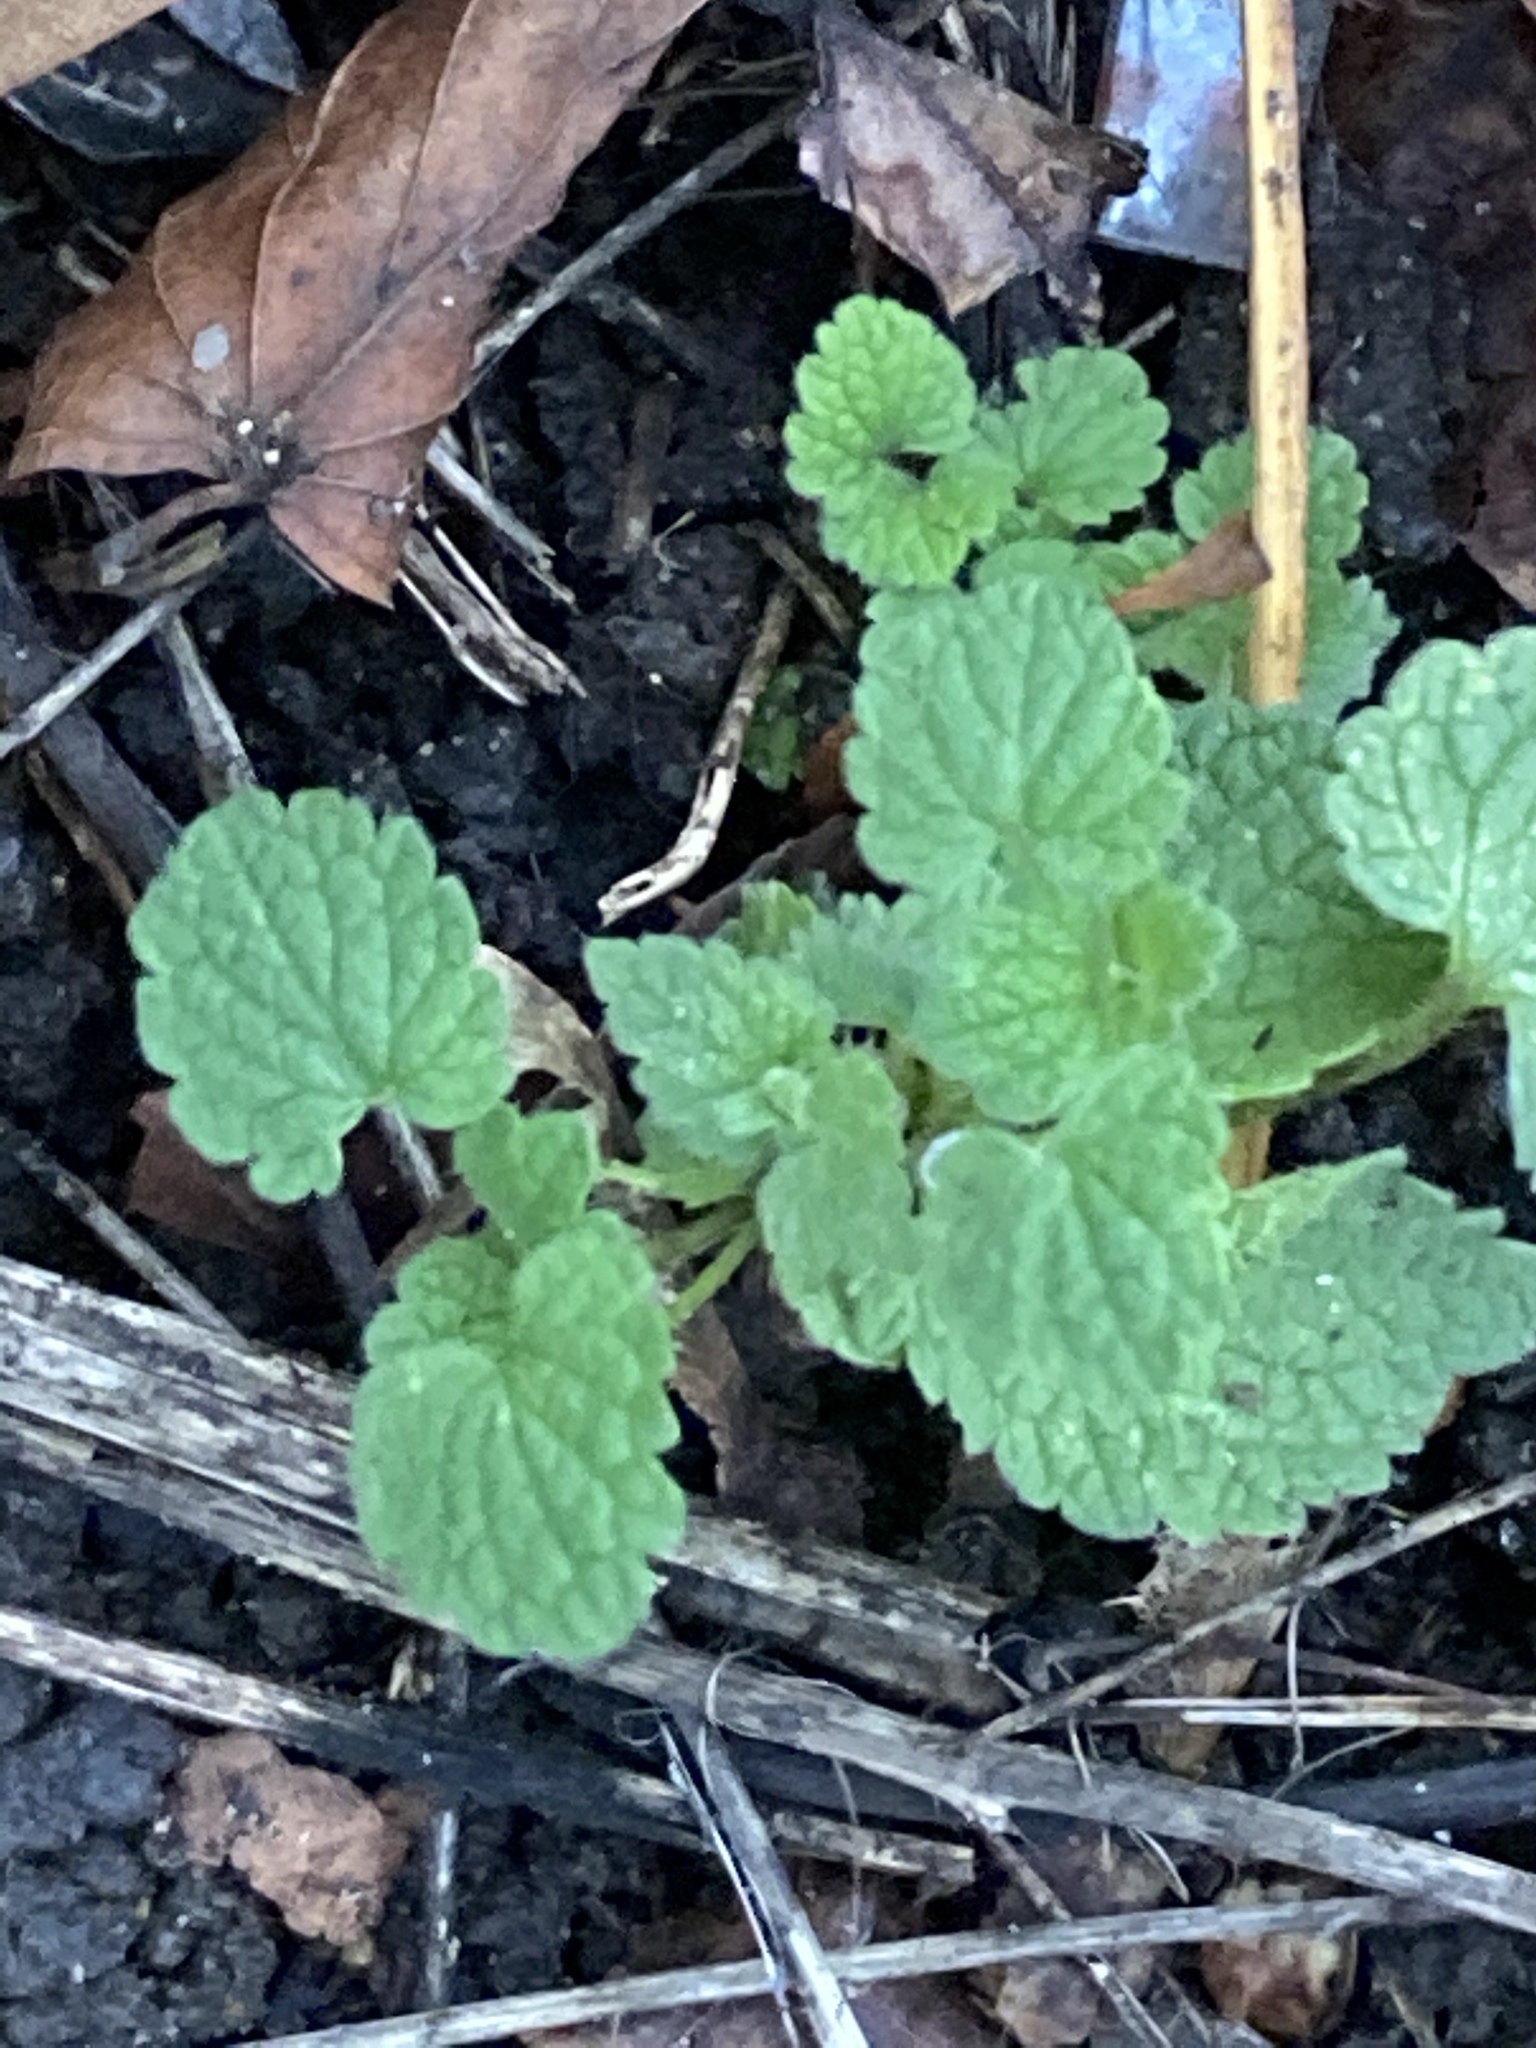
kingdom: Plantae
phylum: Tracheophyta
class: Magnoliopsida
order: Lamiales
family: Lamiaceae
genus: Lamium
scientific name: Lamium purpureum
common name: Red dead-nettle
